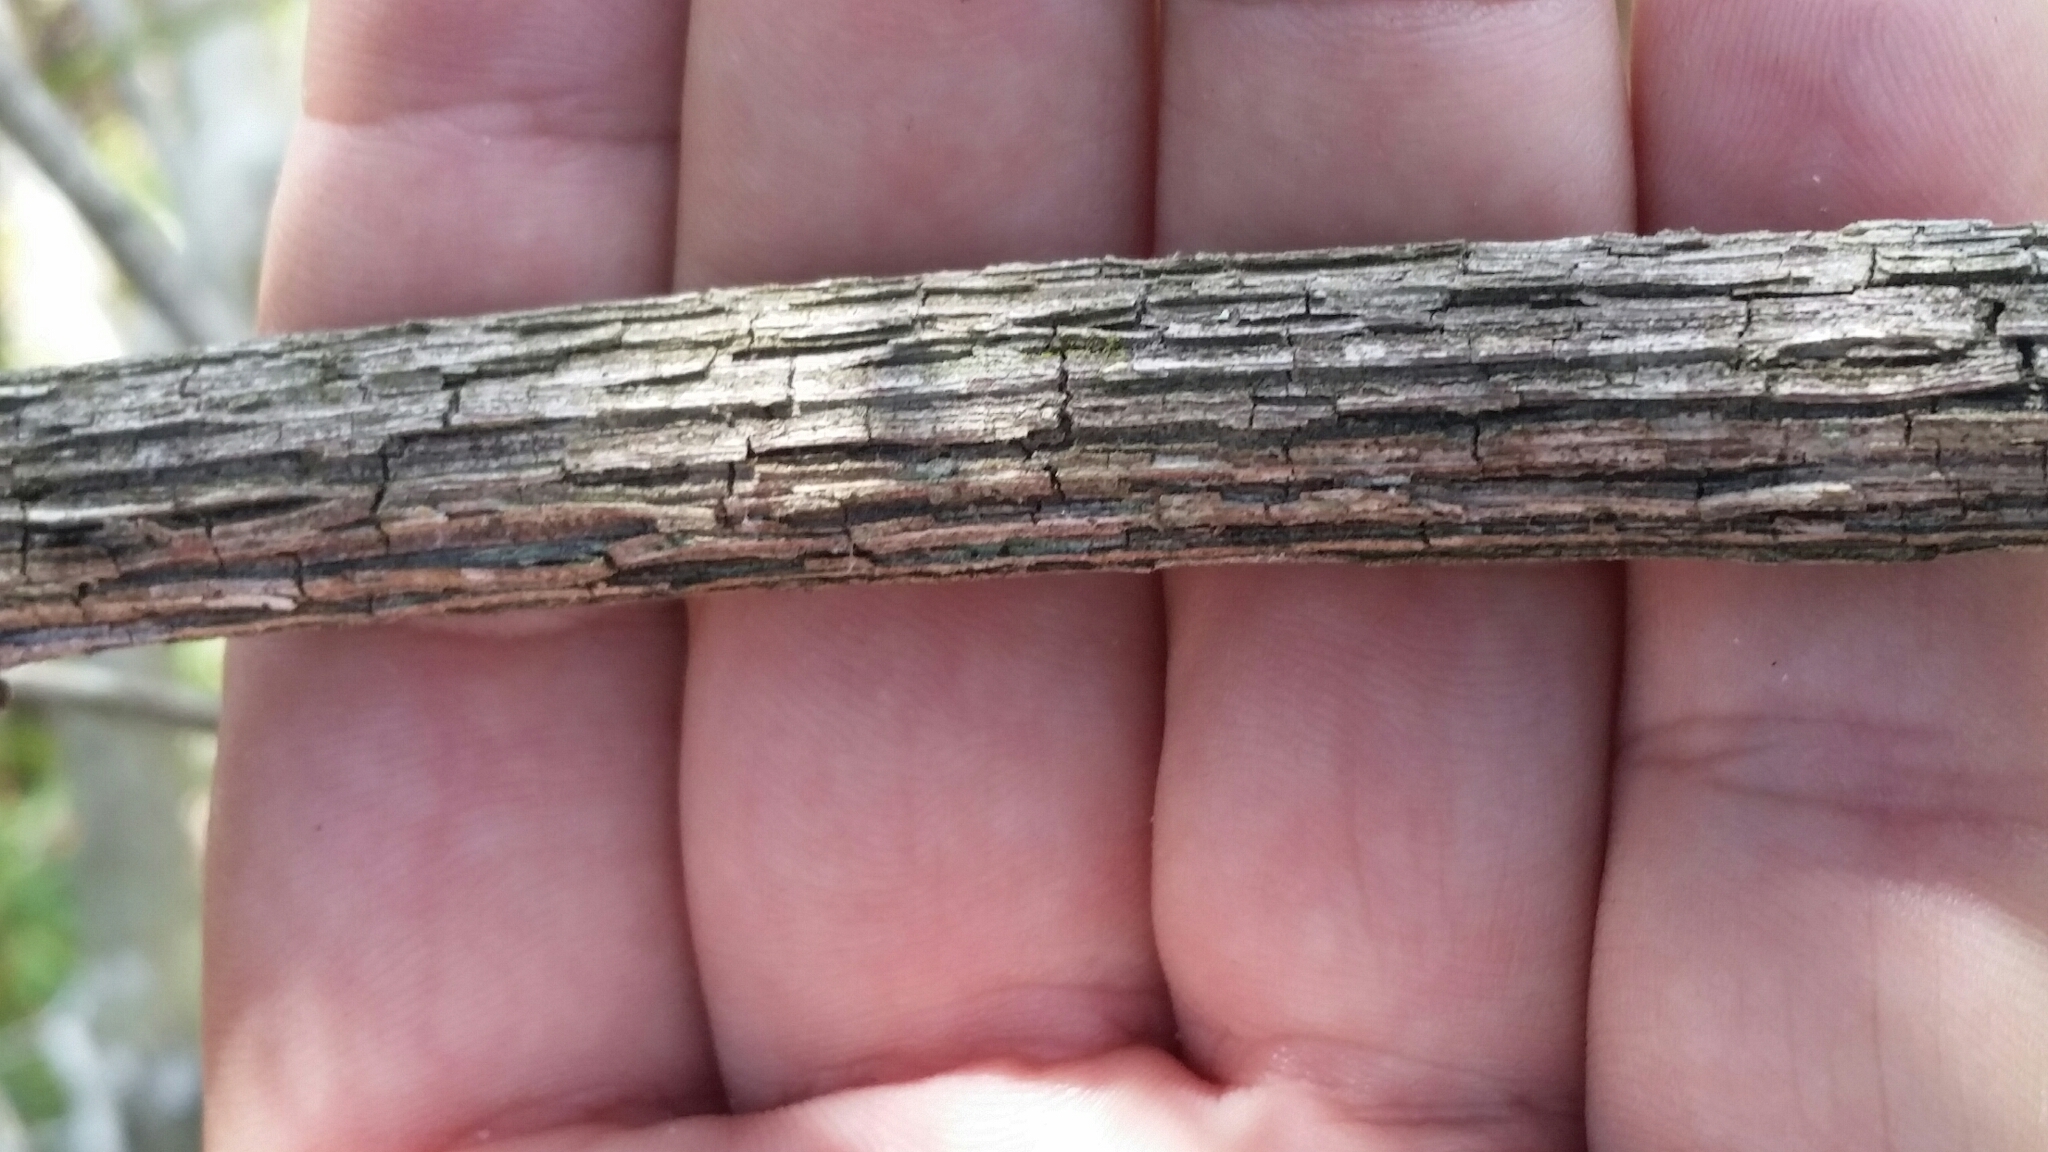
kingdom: Plantae
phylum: Tracheophyta
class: Magnoliopsida
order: Vitales
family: Vitaceae
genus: Vitis
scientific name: Vitis shuttleworthii
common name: Caloosa grape
